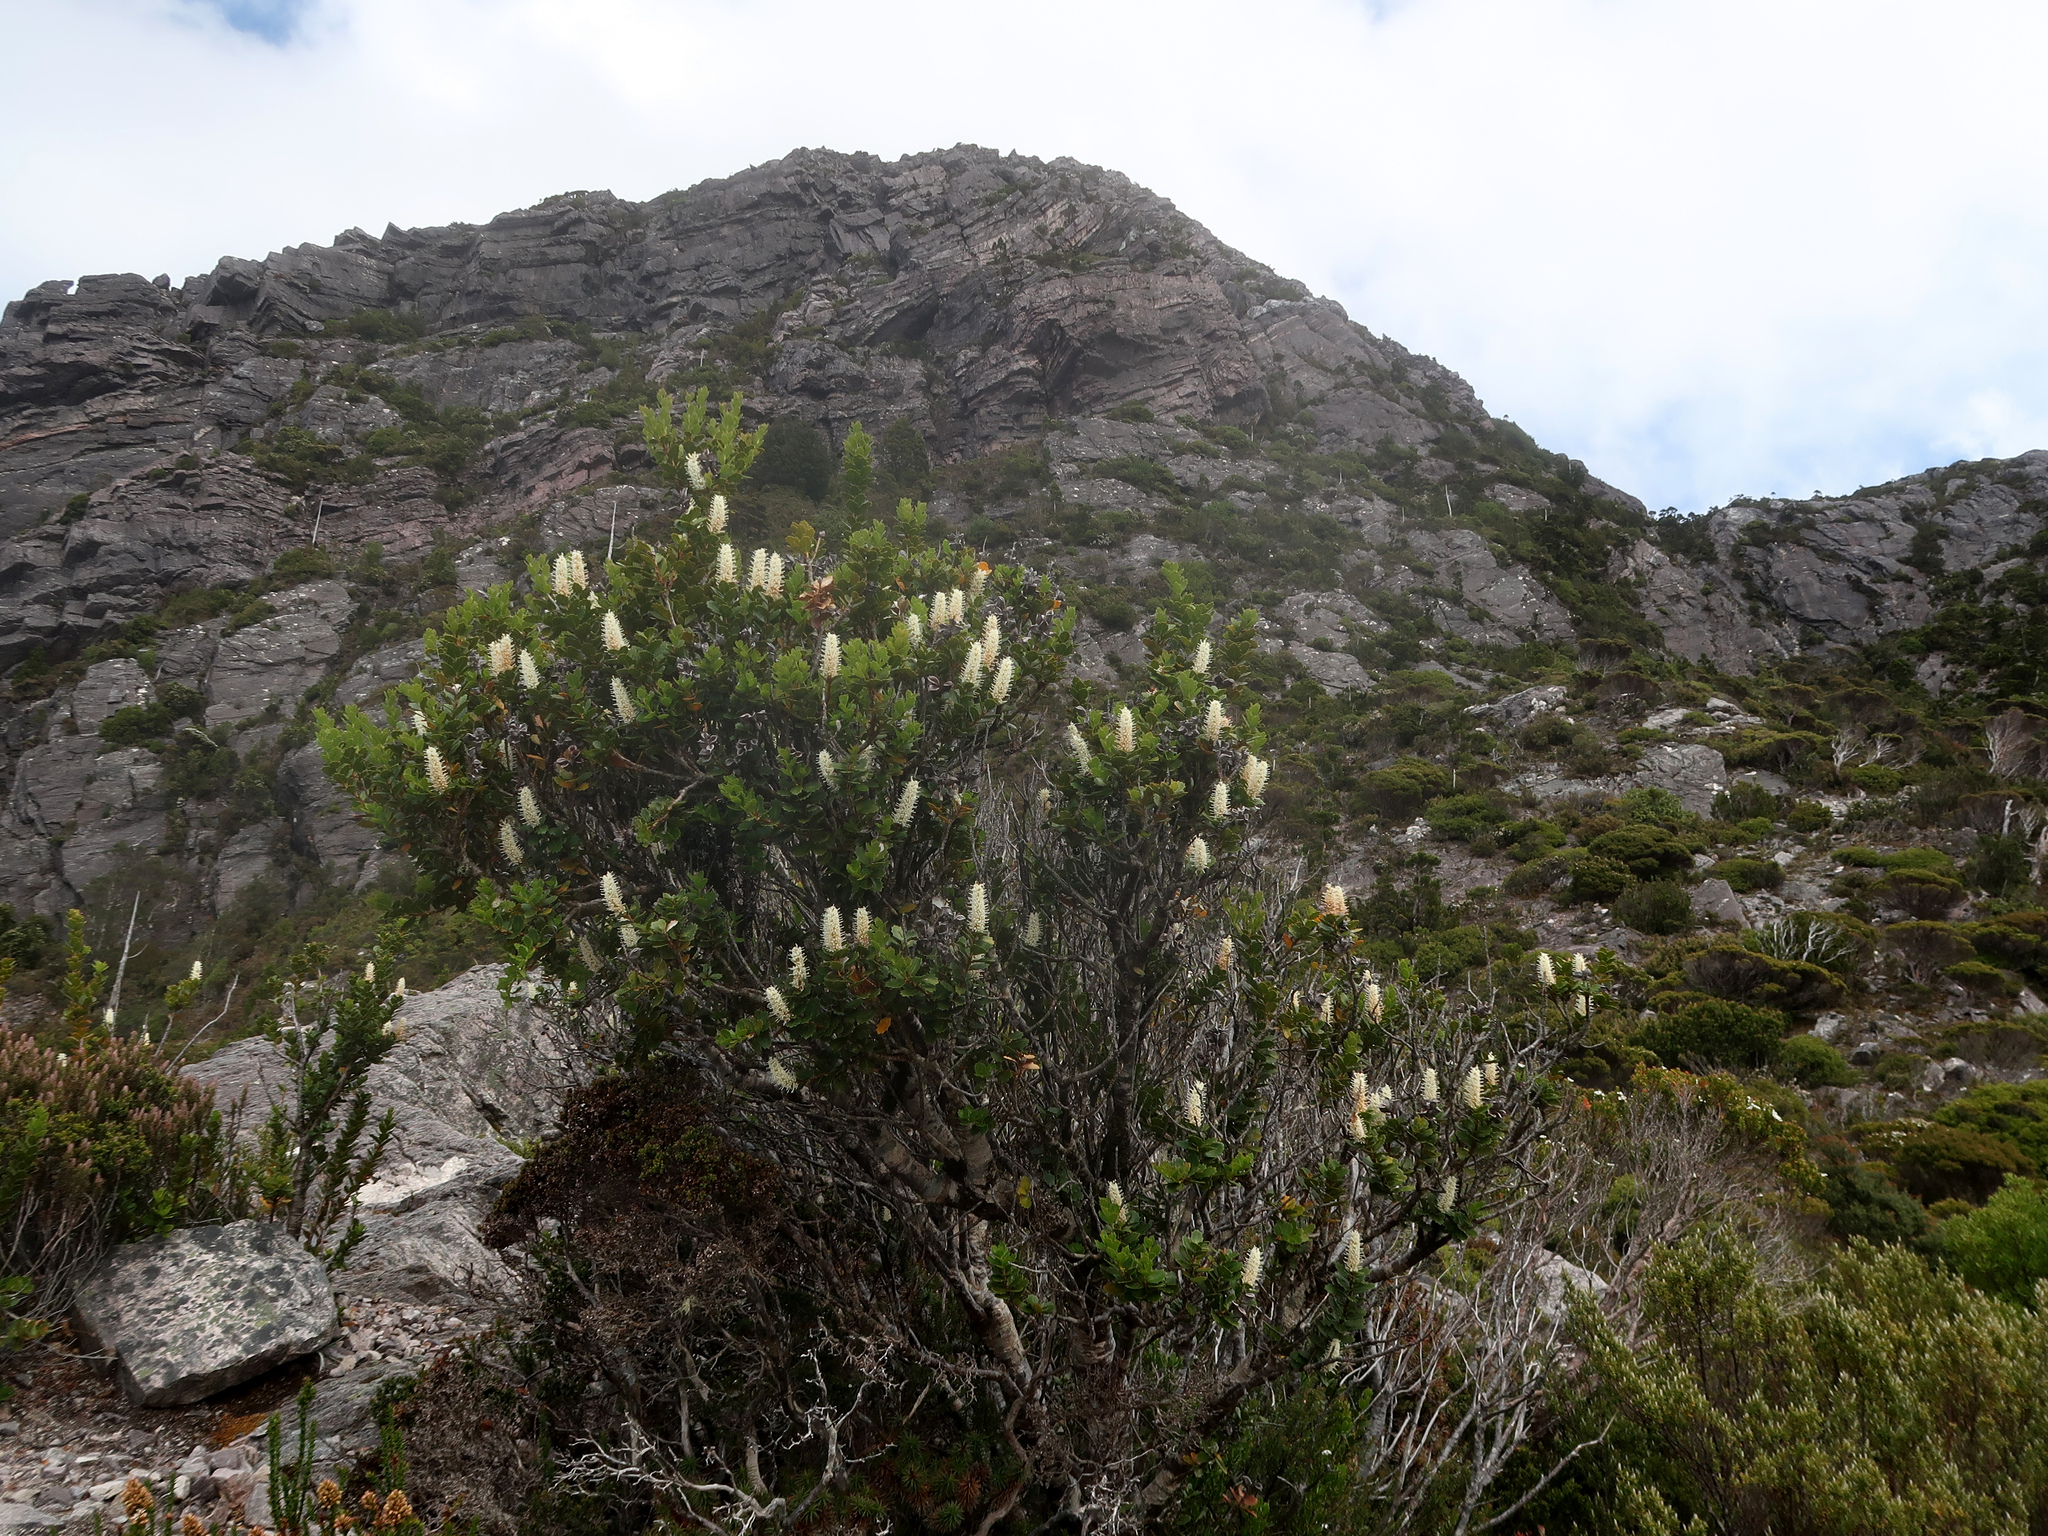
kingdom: Plantae
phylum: Tracheophyta
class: Magnoliopsida
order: Proteales
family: Proteaceae
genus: Orites
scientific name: Orites milliganii
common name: Toothed orites
